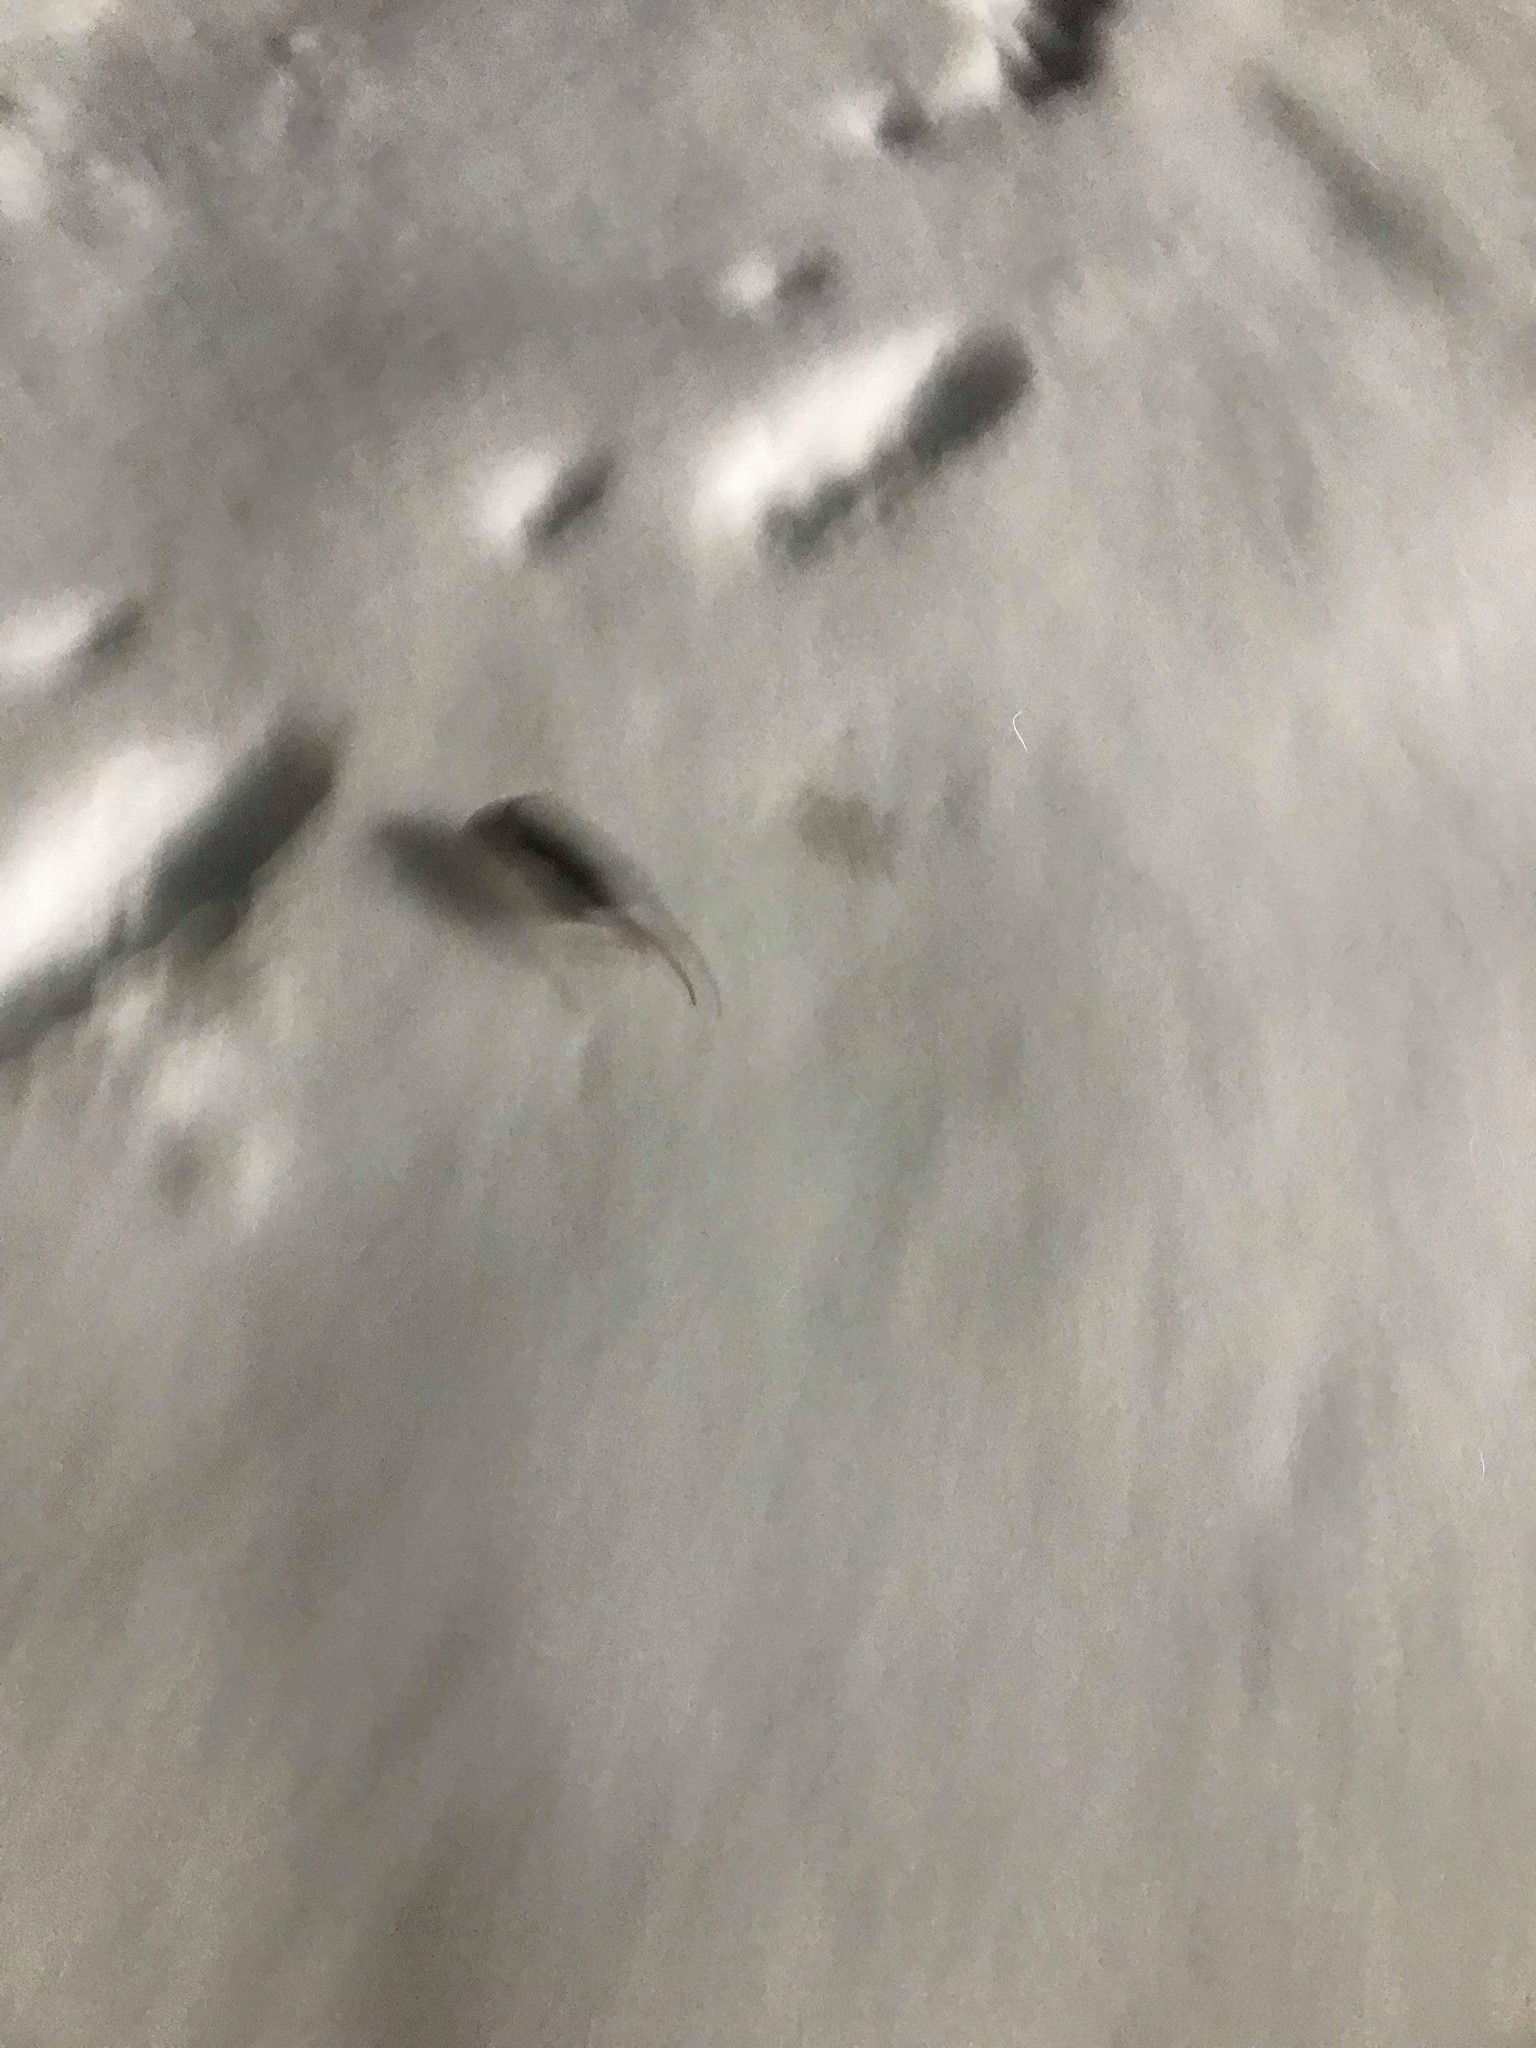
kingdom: Animalia
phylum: Chordata
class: Mammalia
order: Rodentia
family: Muridae
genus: Mus
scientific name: Mus musculus
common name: House mouse
